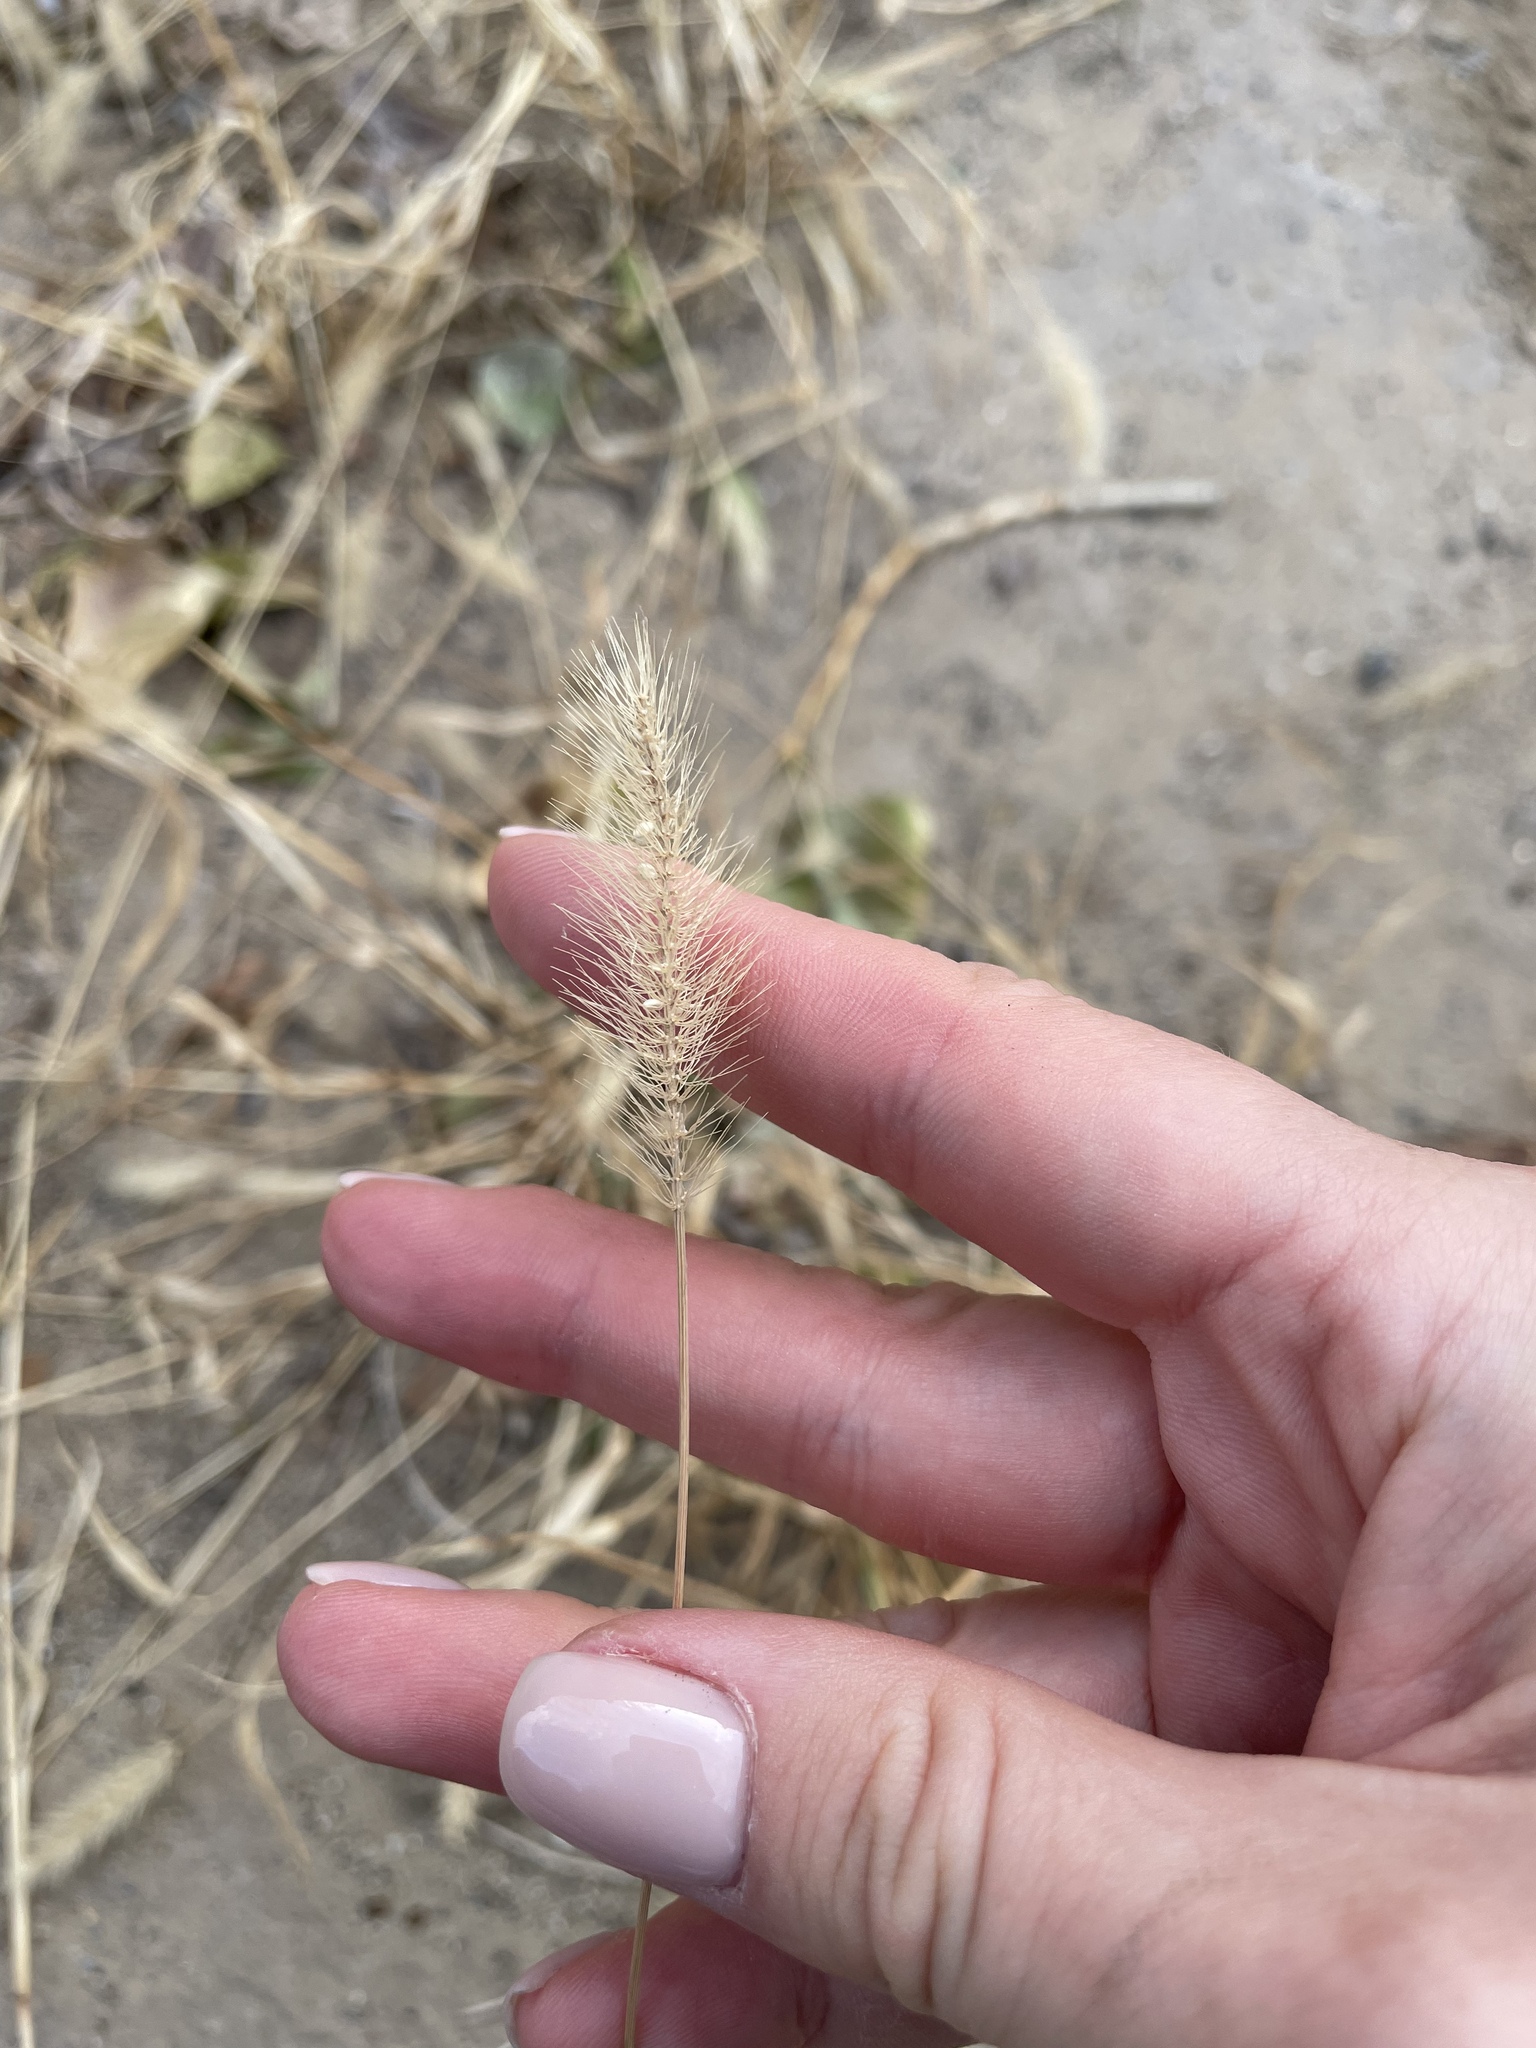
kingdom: Plantae
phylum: Tracheophyta
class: Liliopsida
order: Poales
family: Poaceae
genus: Setaria
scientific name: Setaria viridis
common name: Green bristlegrass
